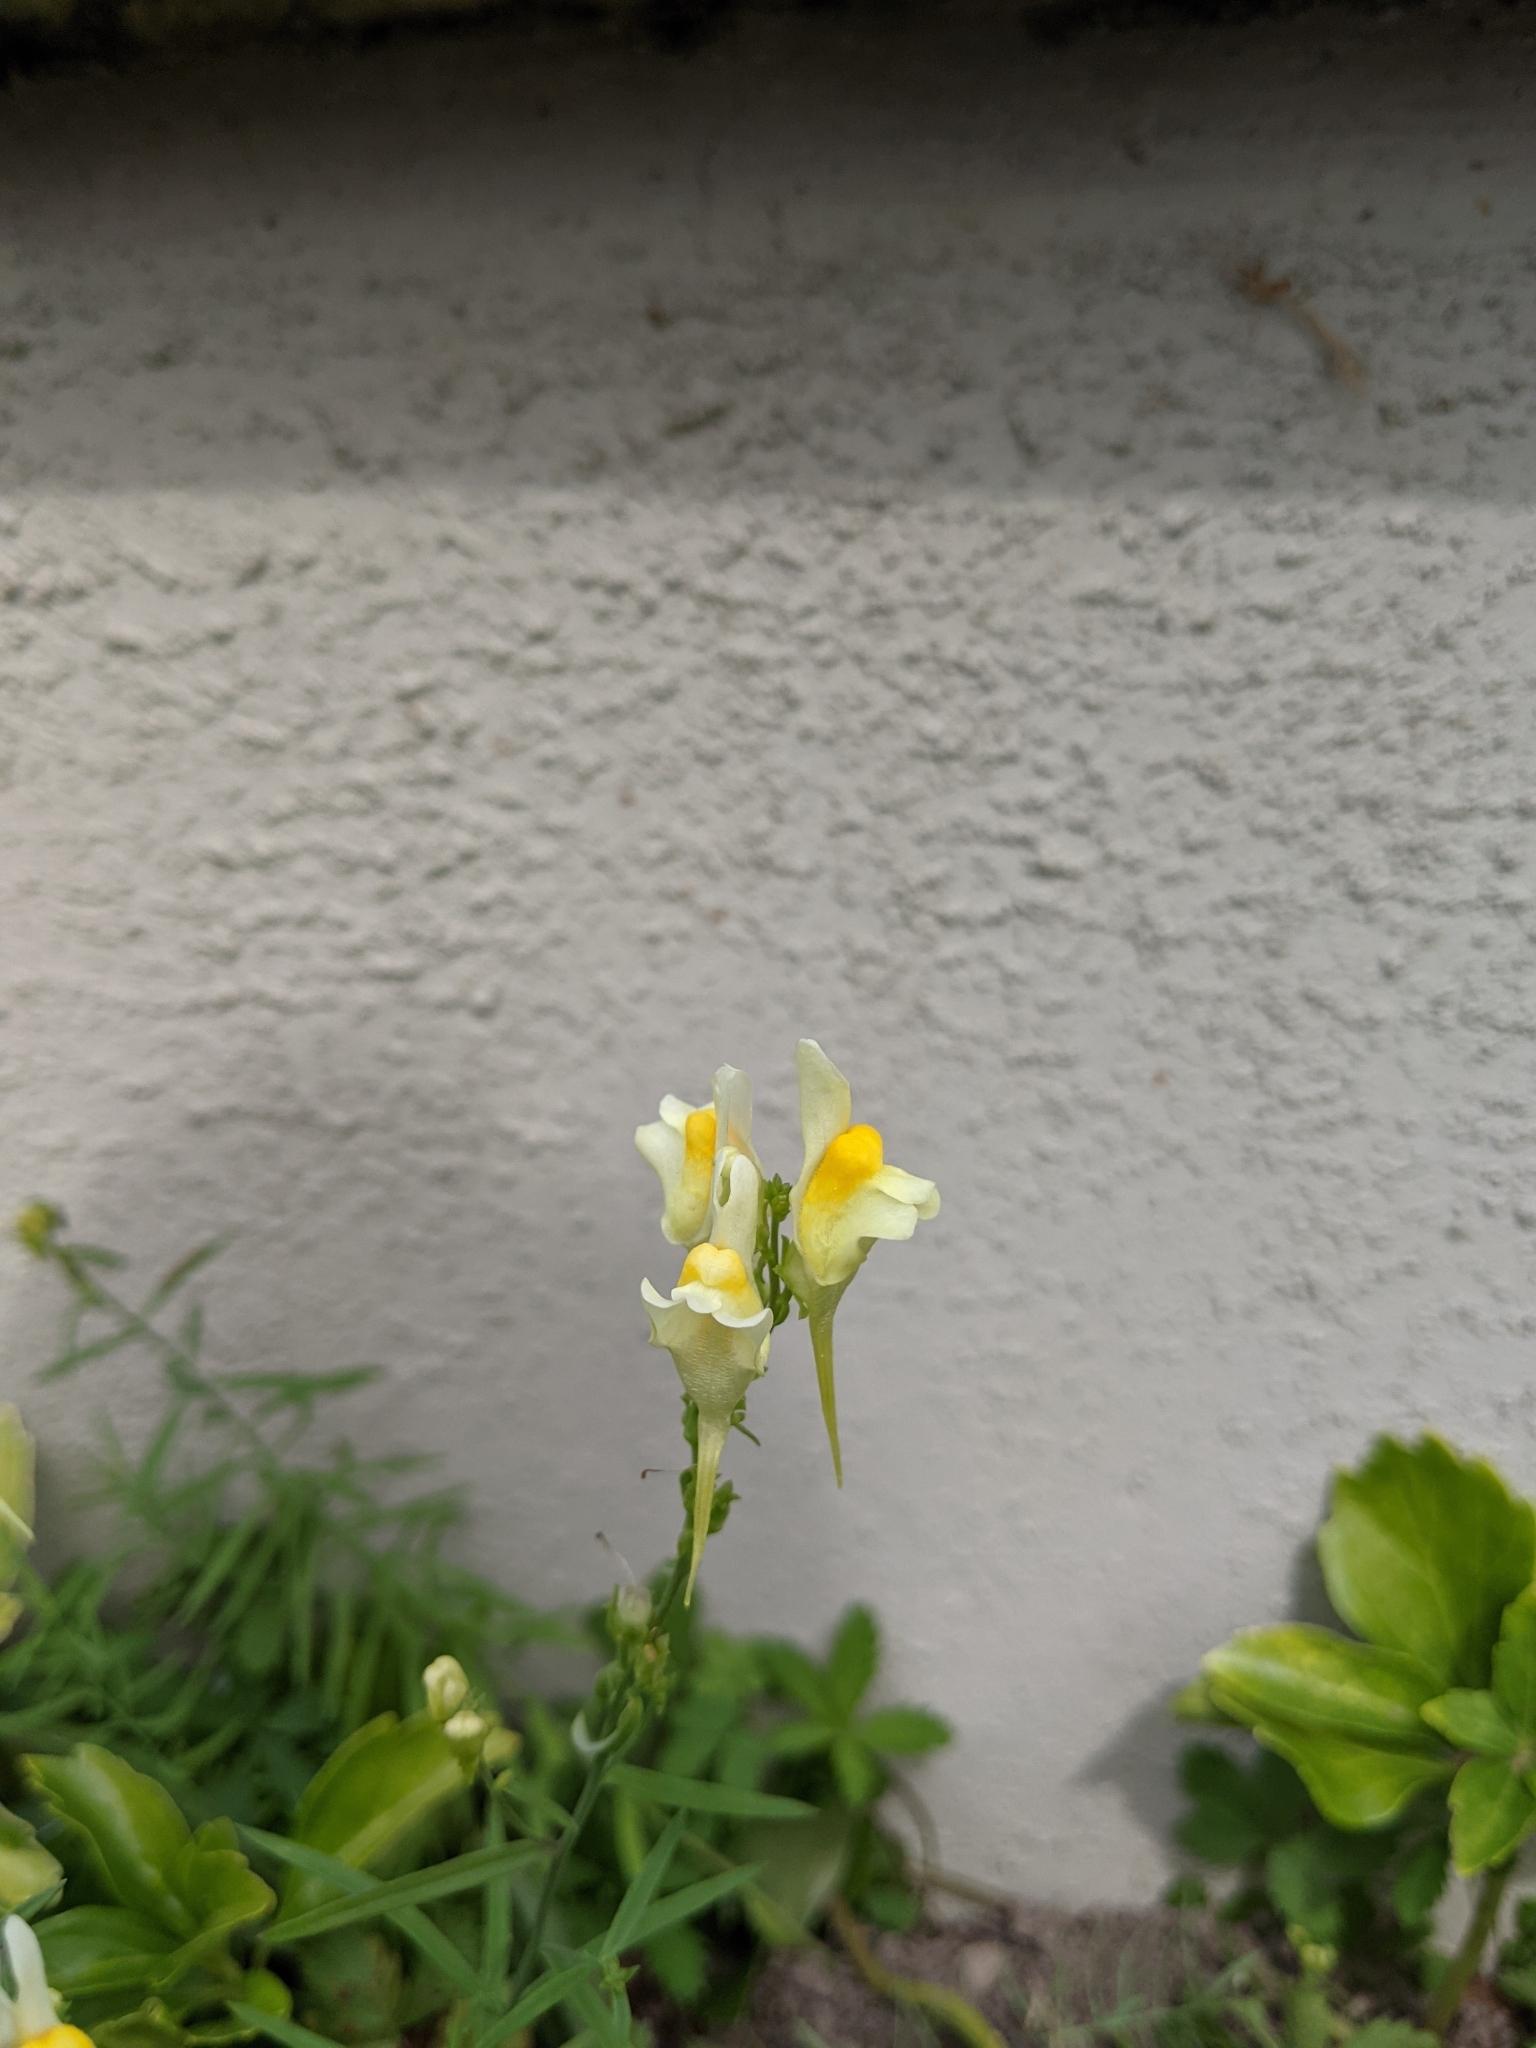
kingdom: Plantae
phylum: Tracheophyta
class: Magnoliopsida
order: Lamiales
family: Plantaginaceae
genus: Linaria
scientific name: Linaria vulgaris
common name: Butter and eggs
